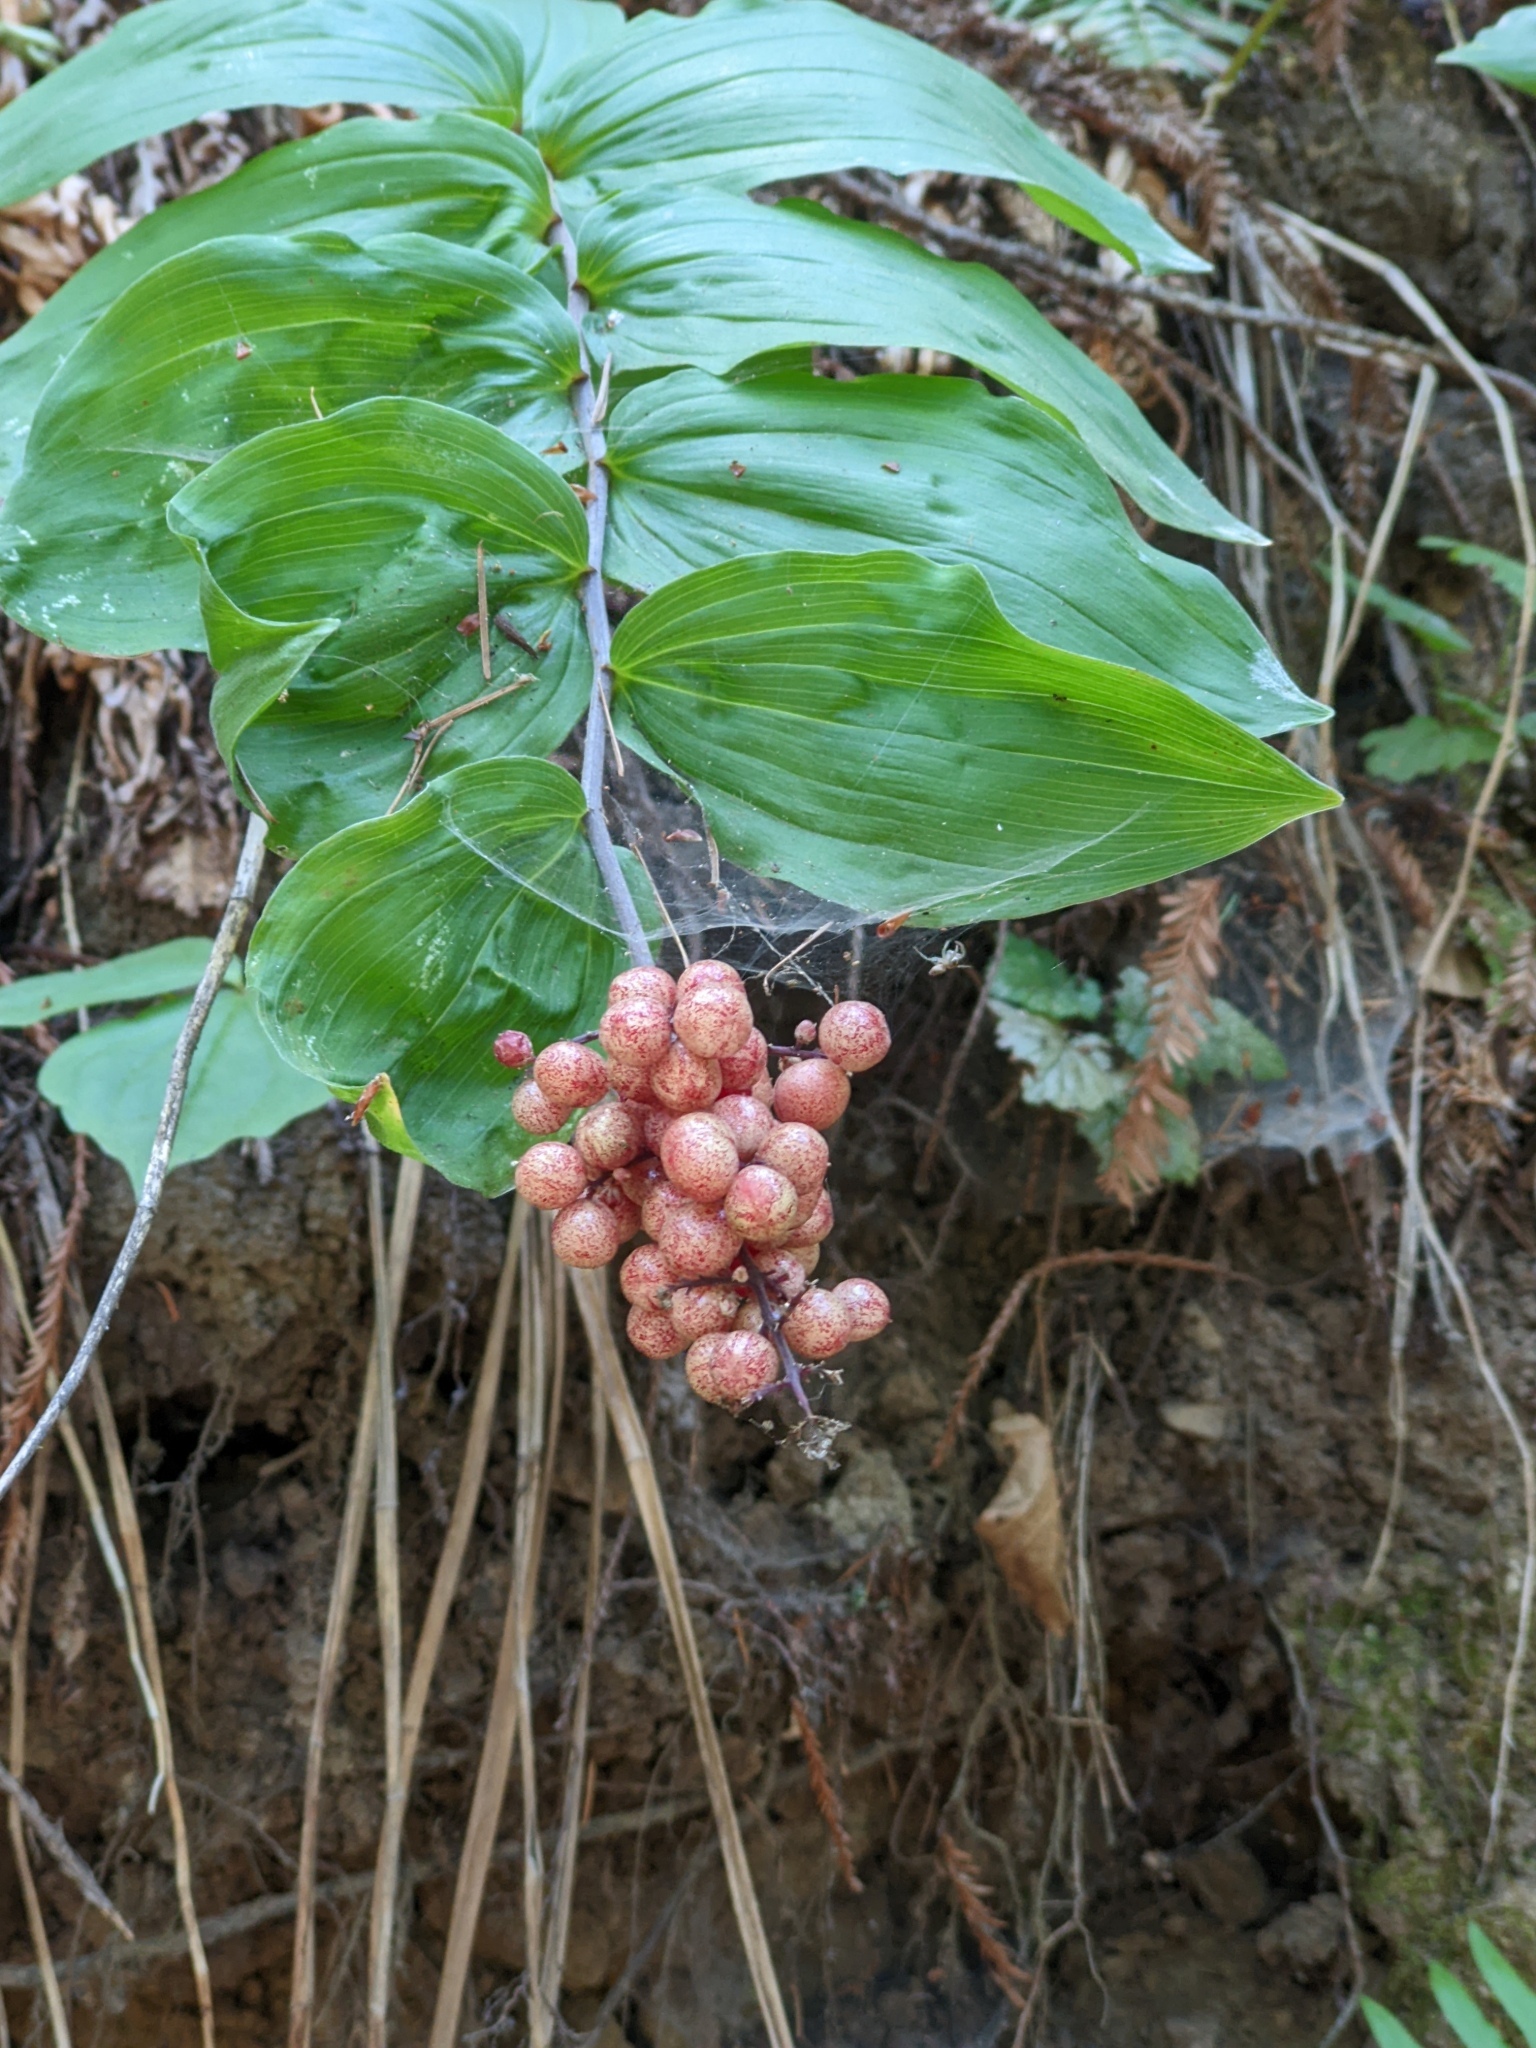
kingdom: Plantae
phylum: Tracheophyta
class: Liliopsida
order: Asparagales
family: Asparagaceae
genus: Maianthemum
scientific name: Maianthemum racemosum
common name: False spikenard
